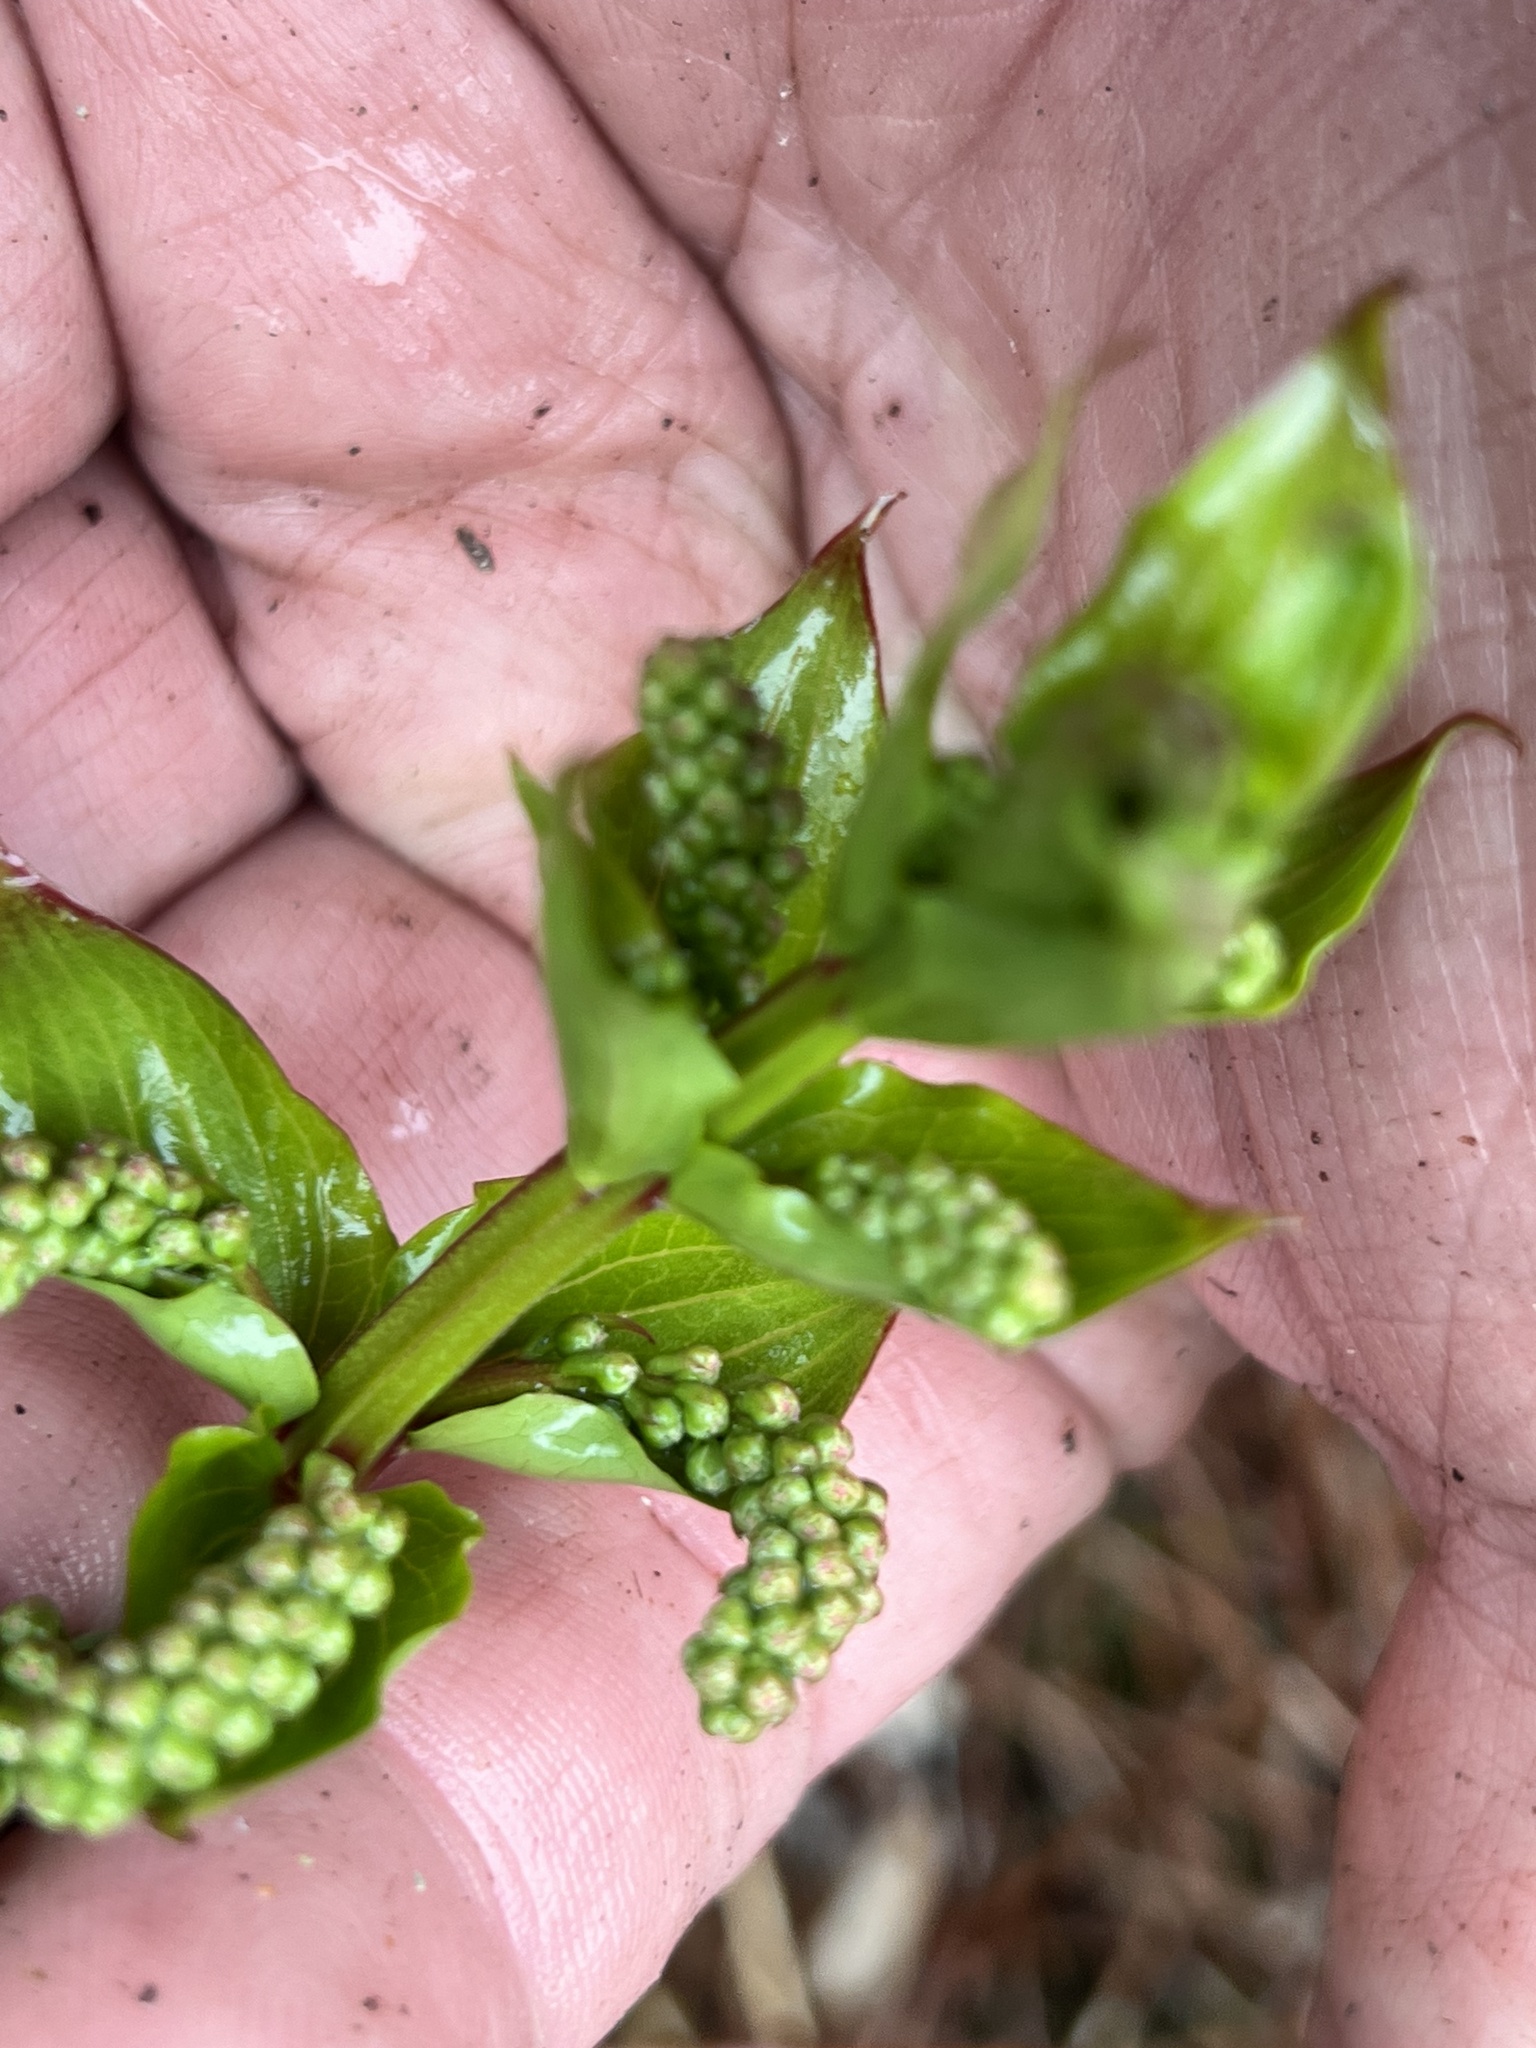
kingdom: Plantae
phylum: Tracheophyta
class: Magnoliopsida
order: Cucurbitales
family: Coriariaceae
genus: Coriaria
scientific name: Coriaria pteridoides
